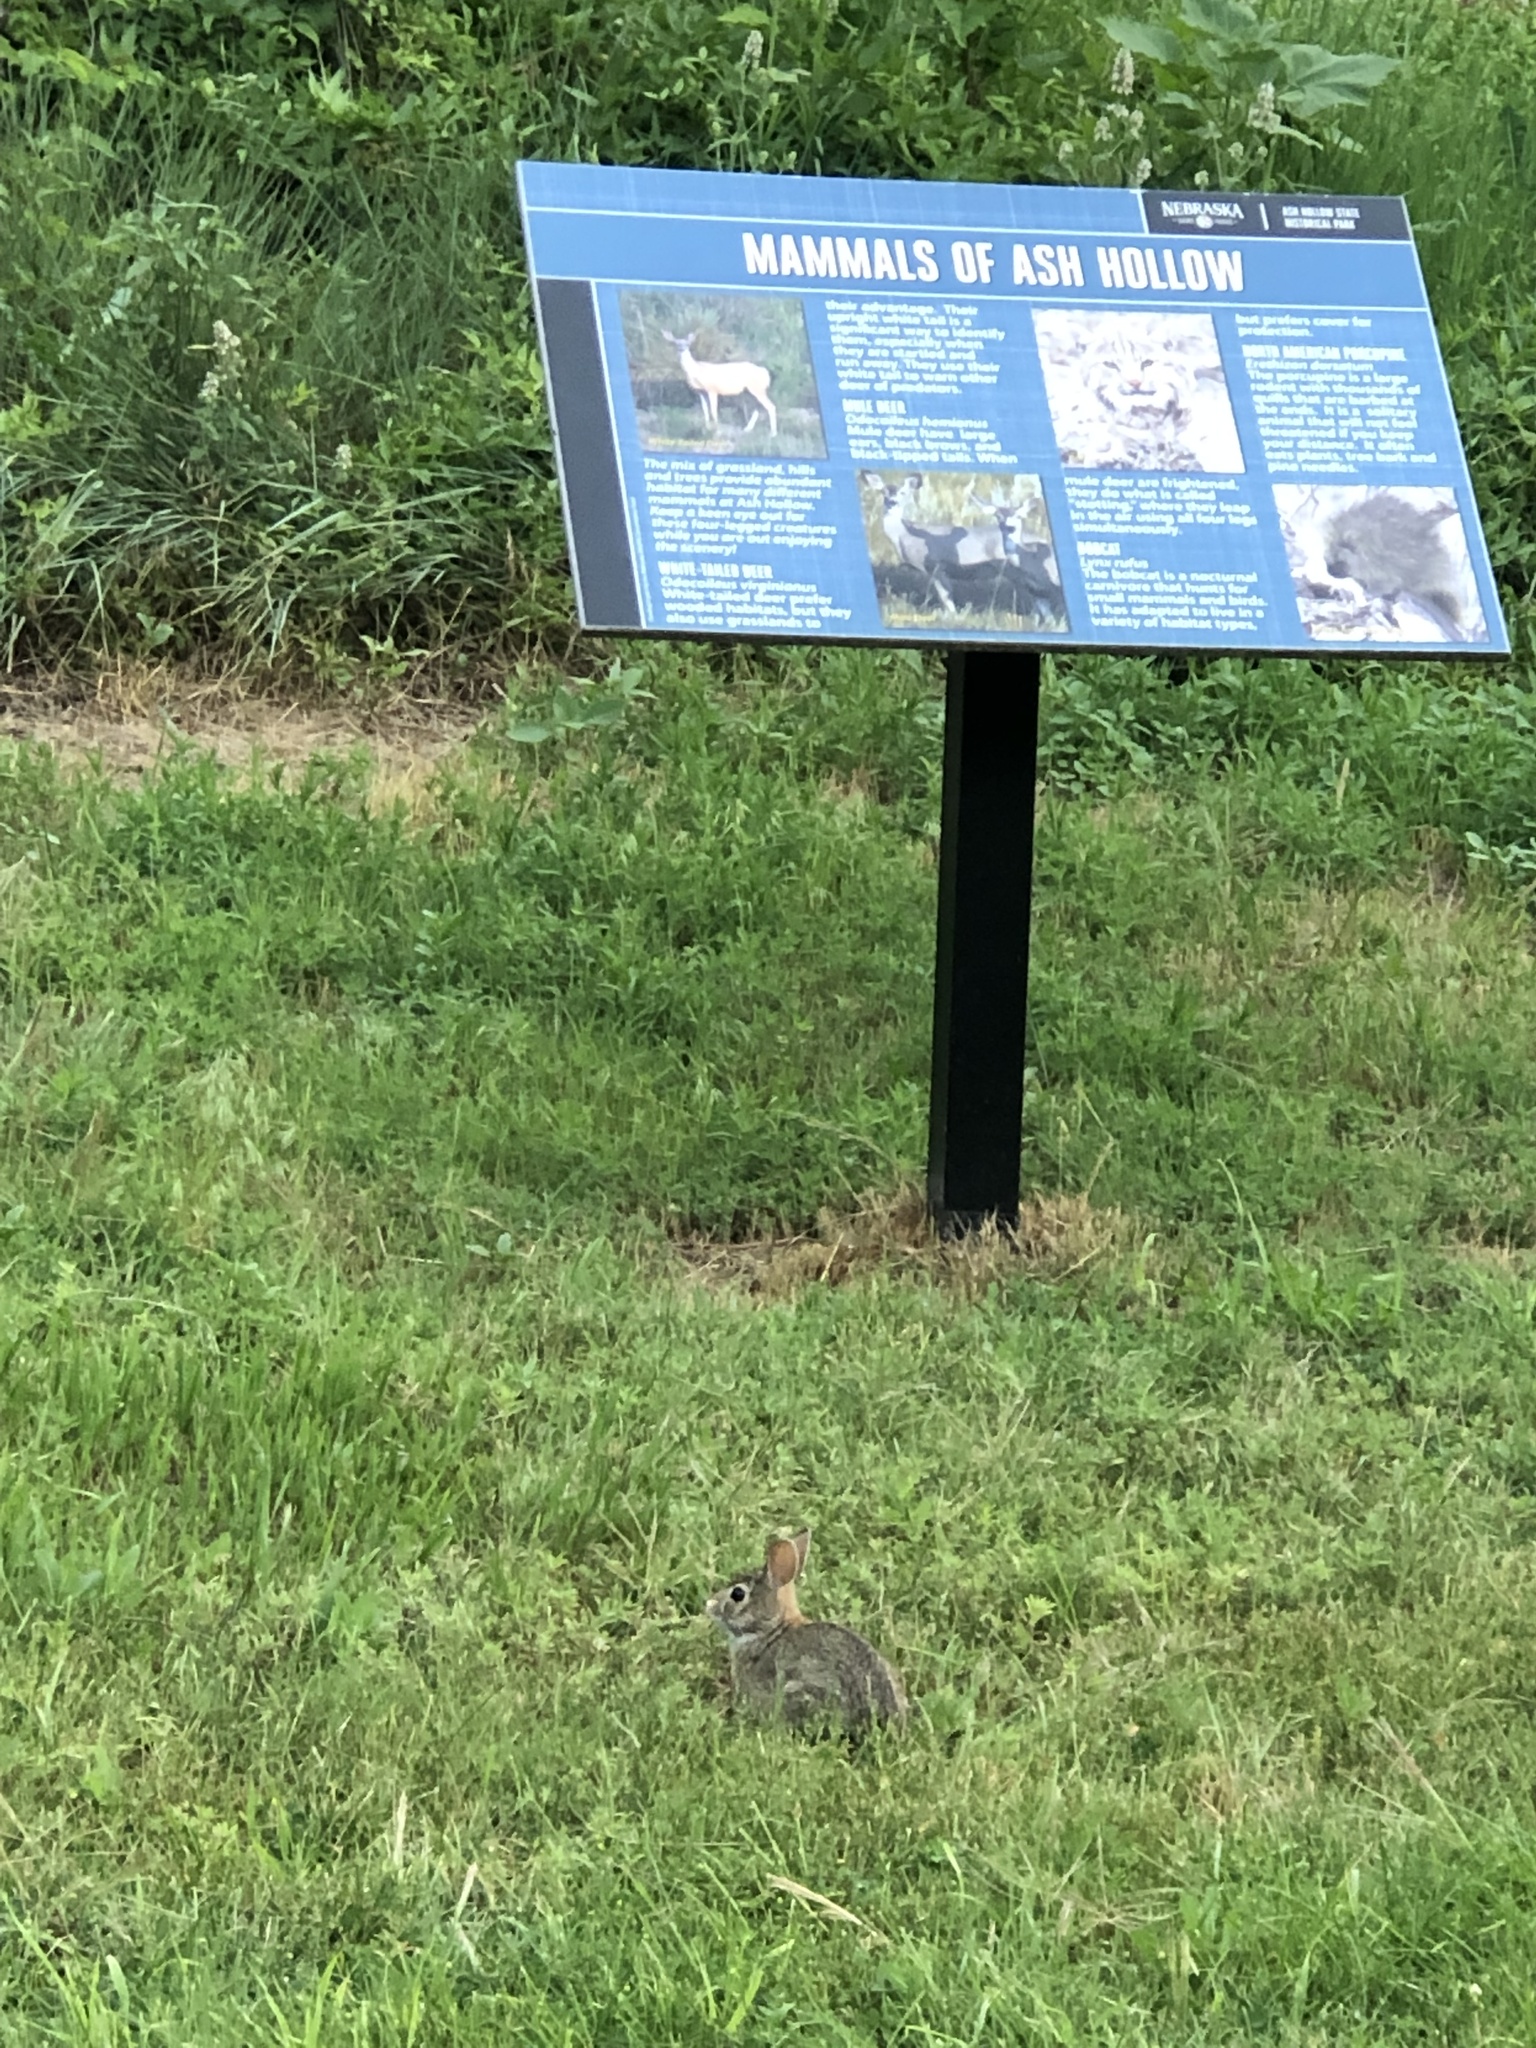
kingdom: Animalia
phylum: Chordata
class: Mammalia
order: Lagomorpha
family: Leporidae
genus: Sylvilagus
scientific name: Sylvilagus floridanus
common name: Eastern cottontail
